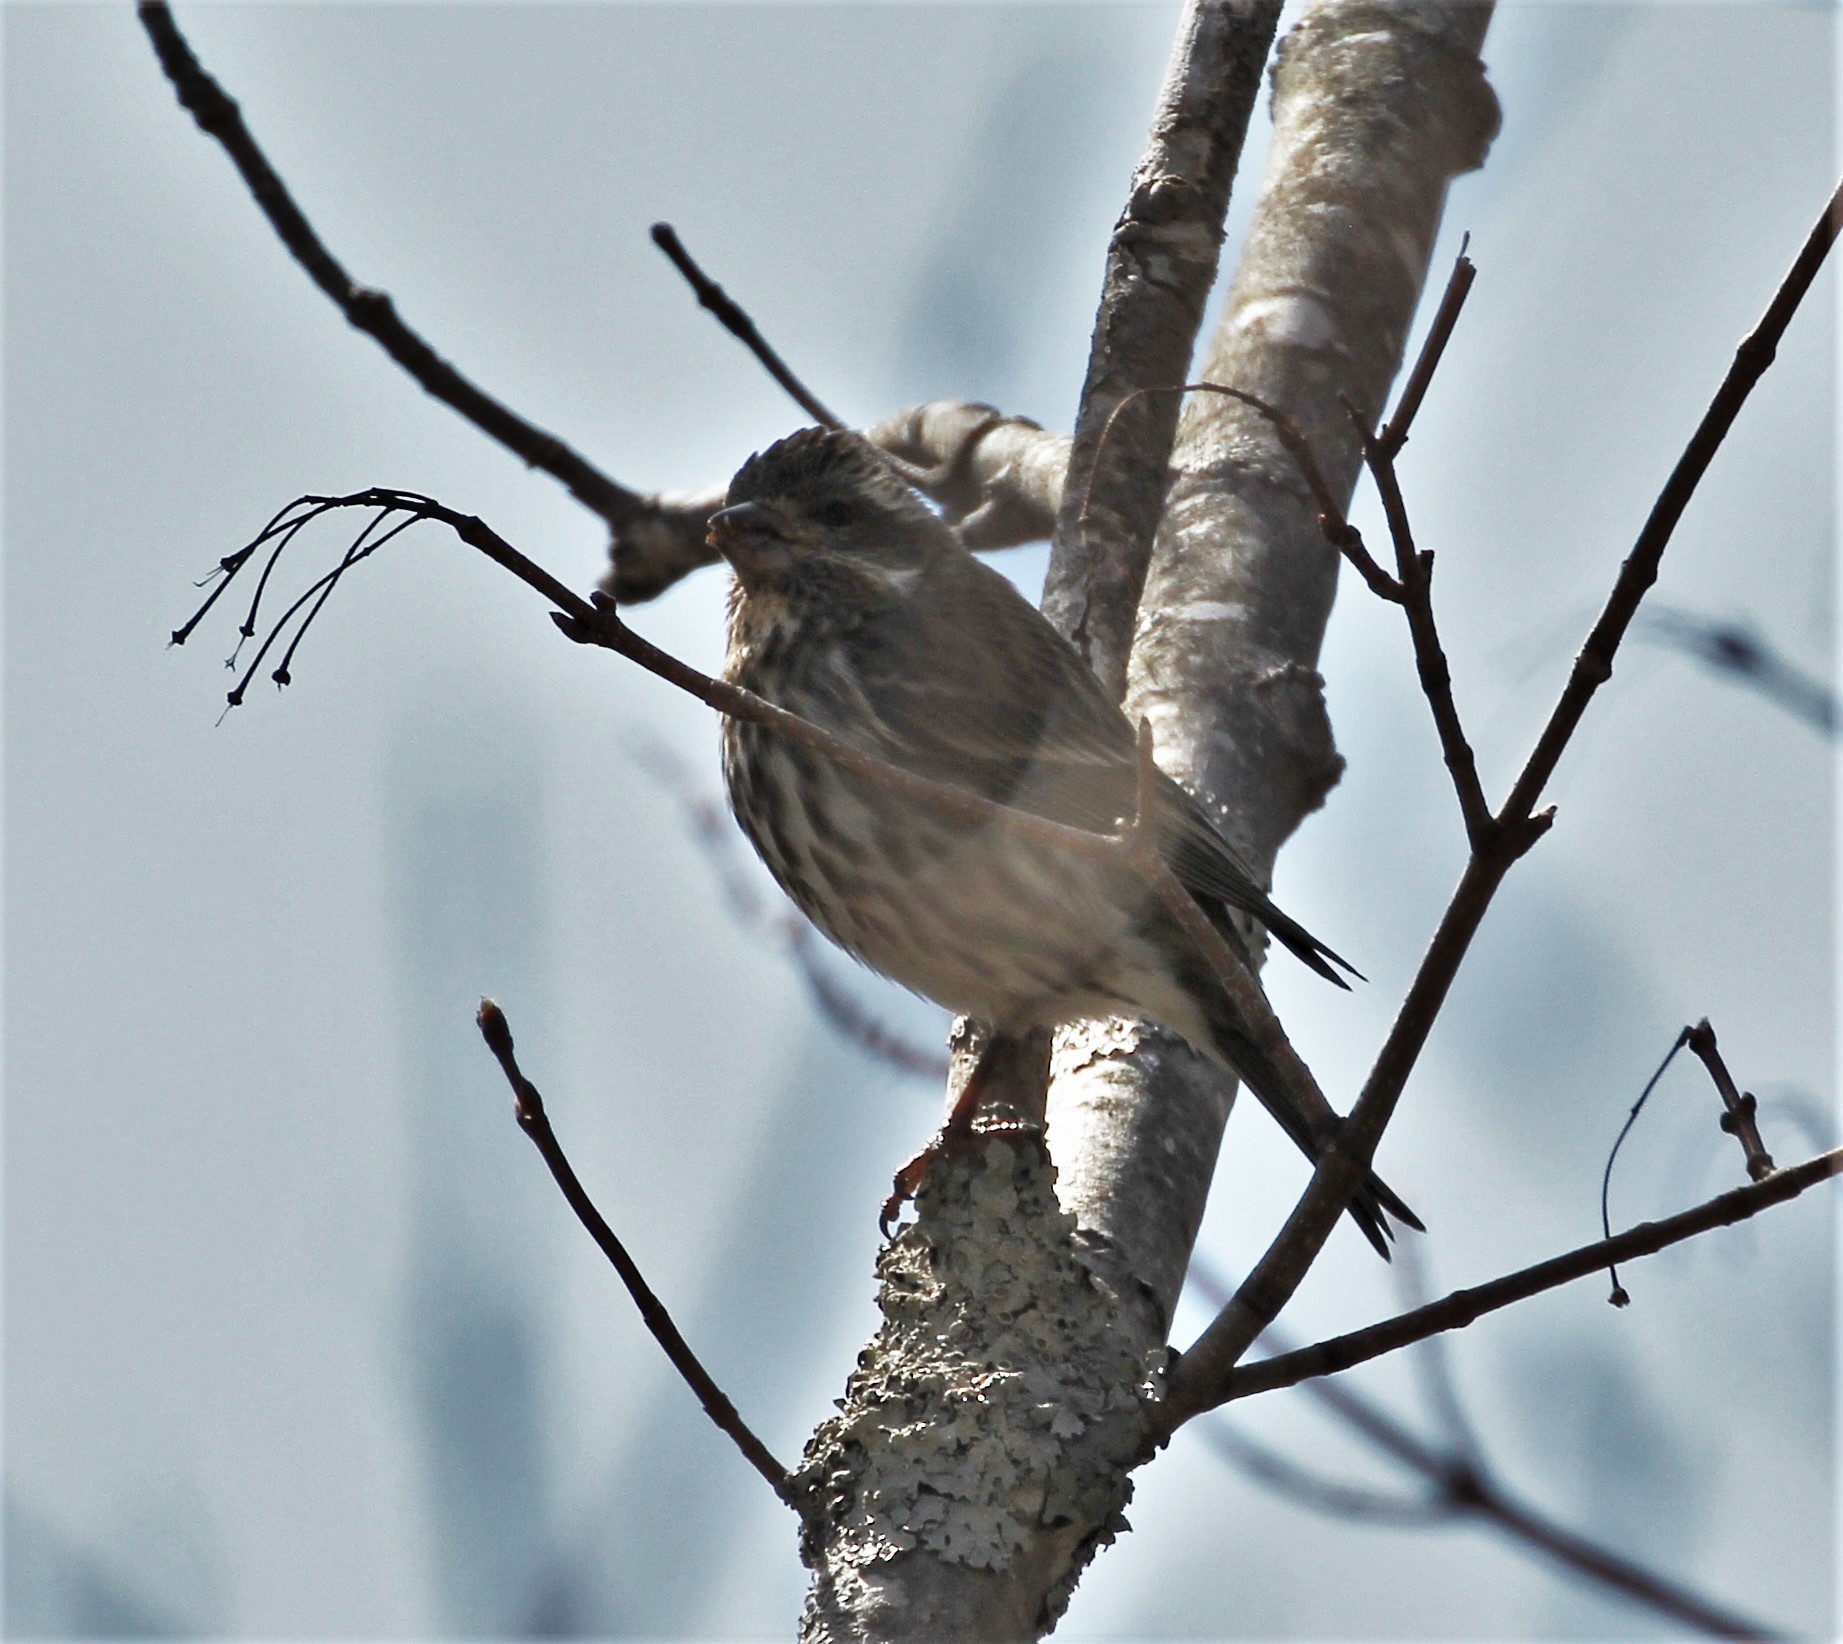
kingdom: Animalia
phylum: Chordata
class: Aves
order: Passeriformes
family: Fringillidae
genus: Haemorhous
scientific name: Haemorhous purpureus
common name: Purple finch
